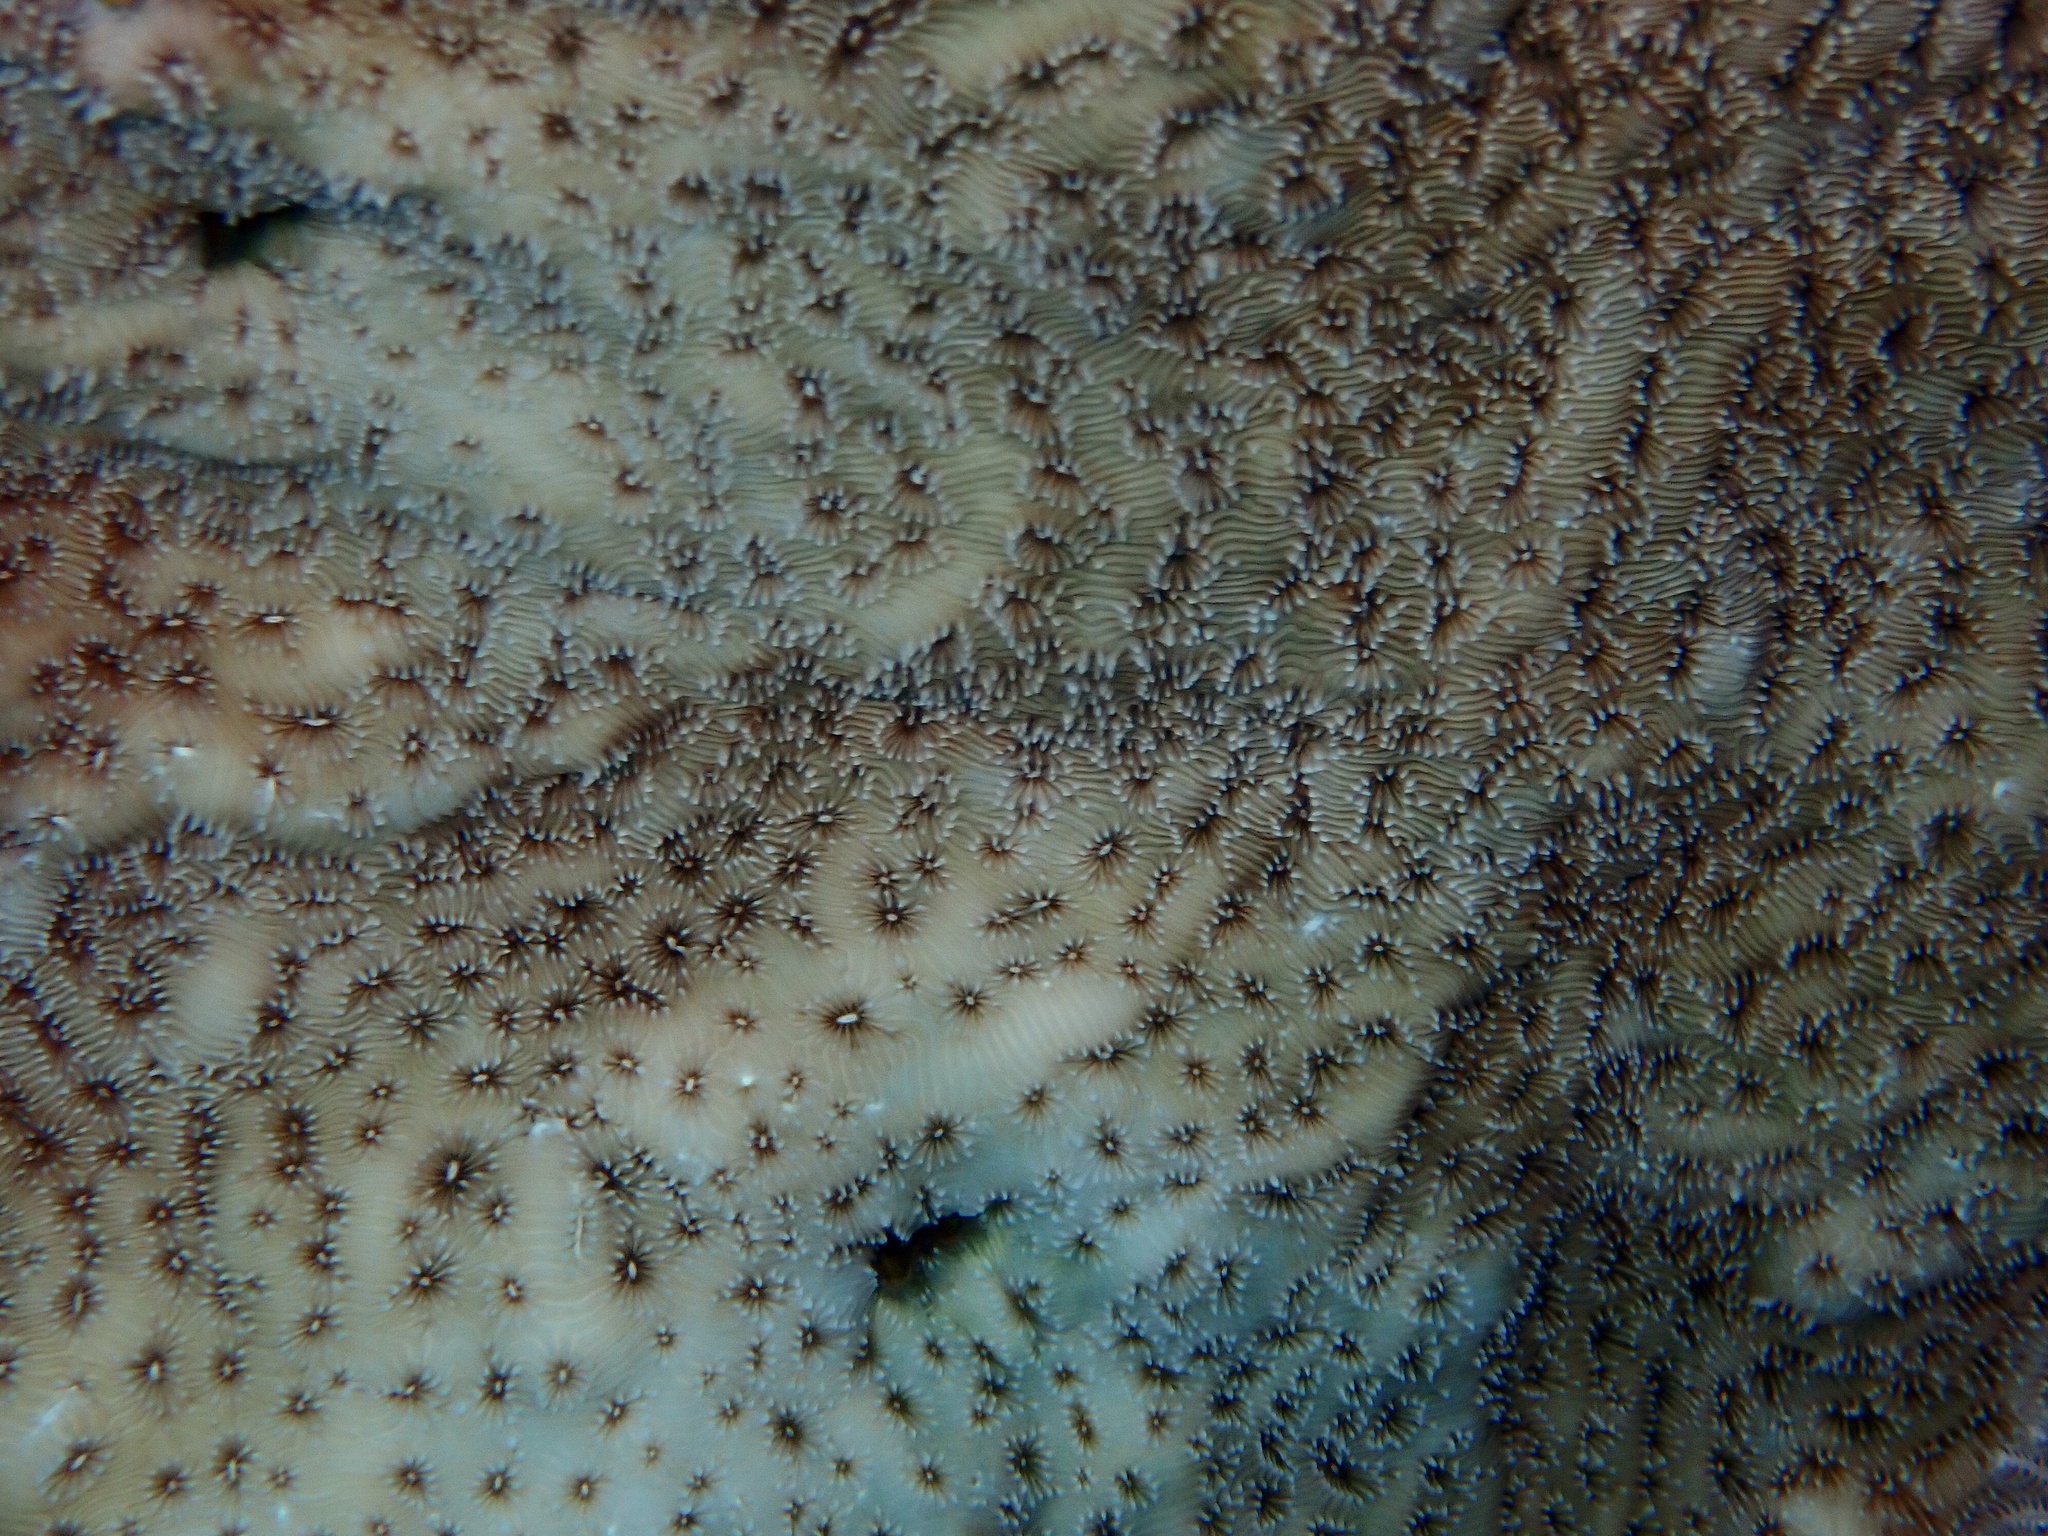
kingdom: Animalia
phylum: Cnidaria
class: Anthozoa
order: Scleractinia
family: Agariciidae
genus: Pavona
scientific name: Pavona explanulata
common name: Leaf coral
